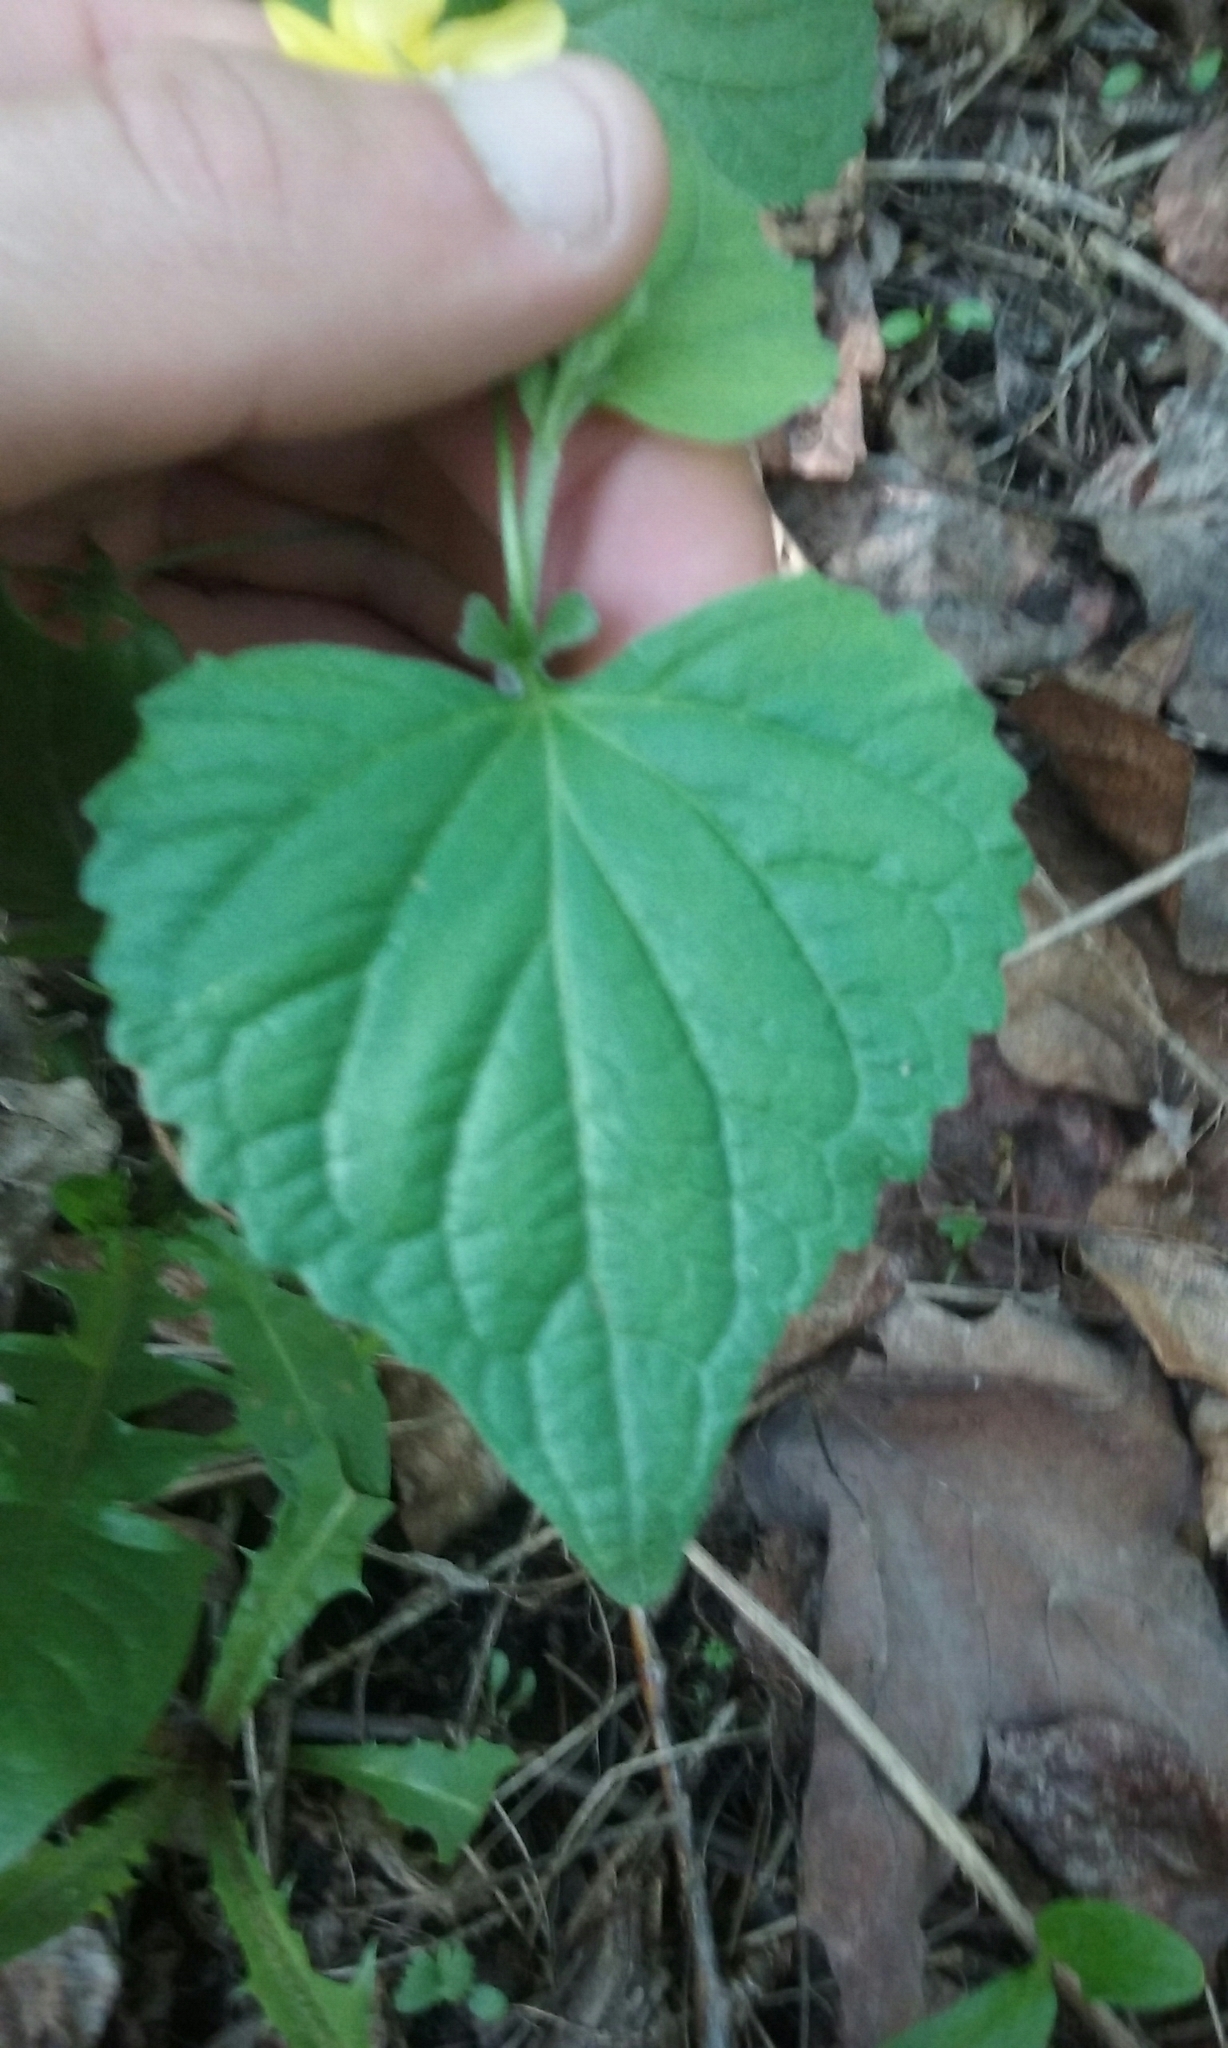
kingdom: Plantae
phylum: Tracheophyta
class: Magnoliopsida
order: Malpighiales
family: Violaceae
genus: Viola
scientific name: Viola eriocarpa
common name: Smooth yellow violet
